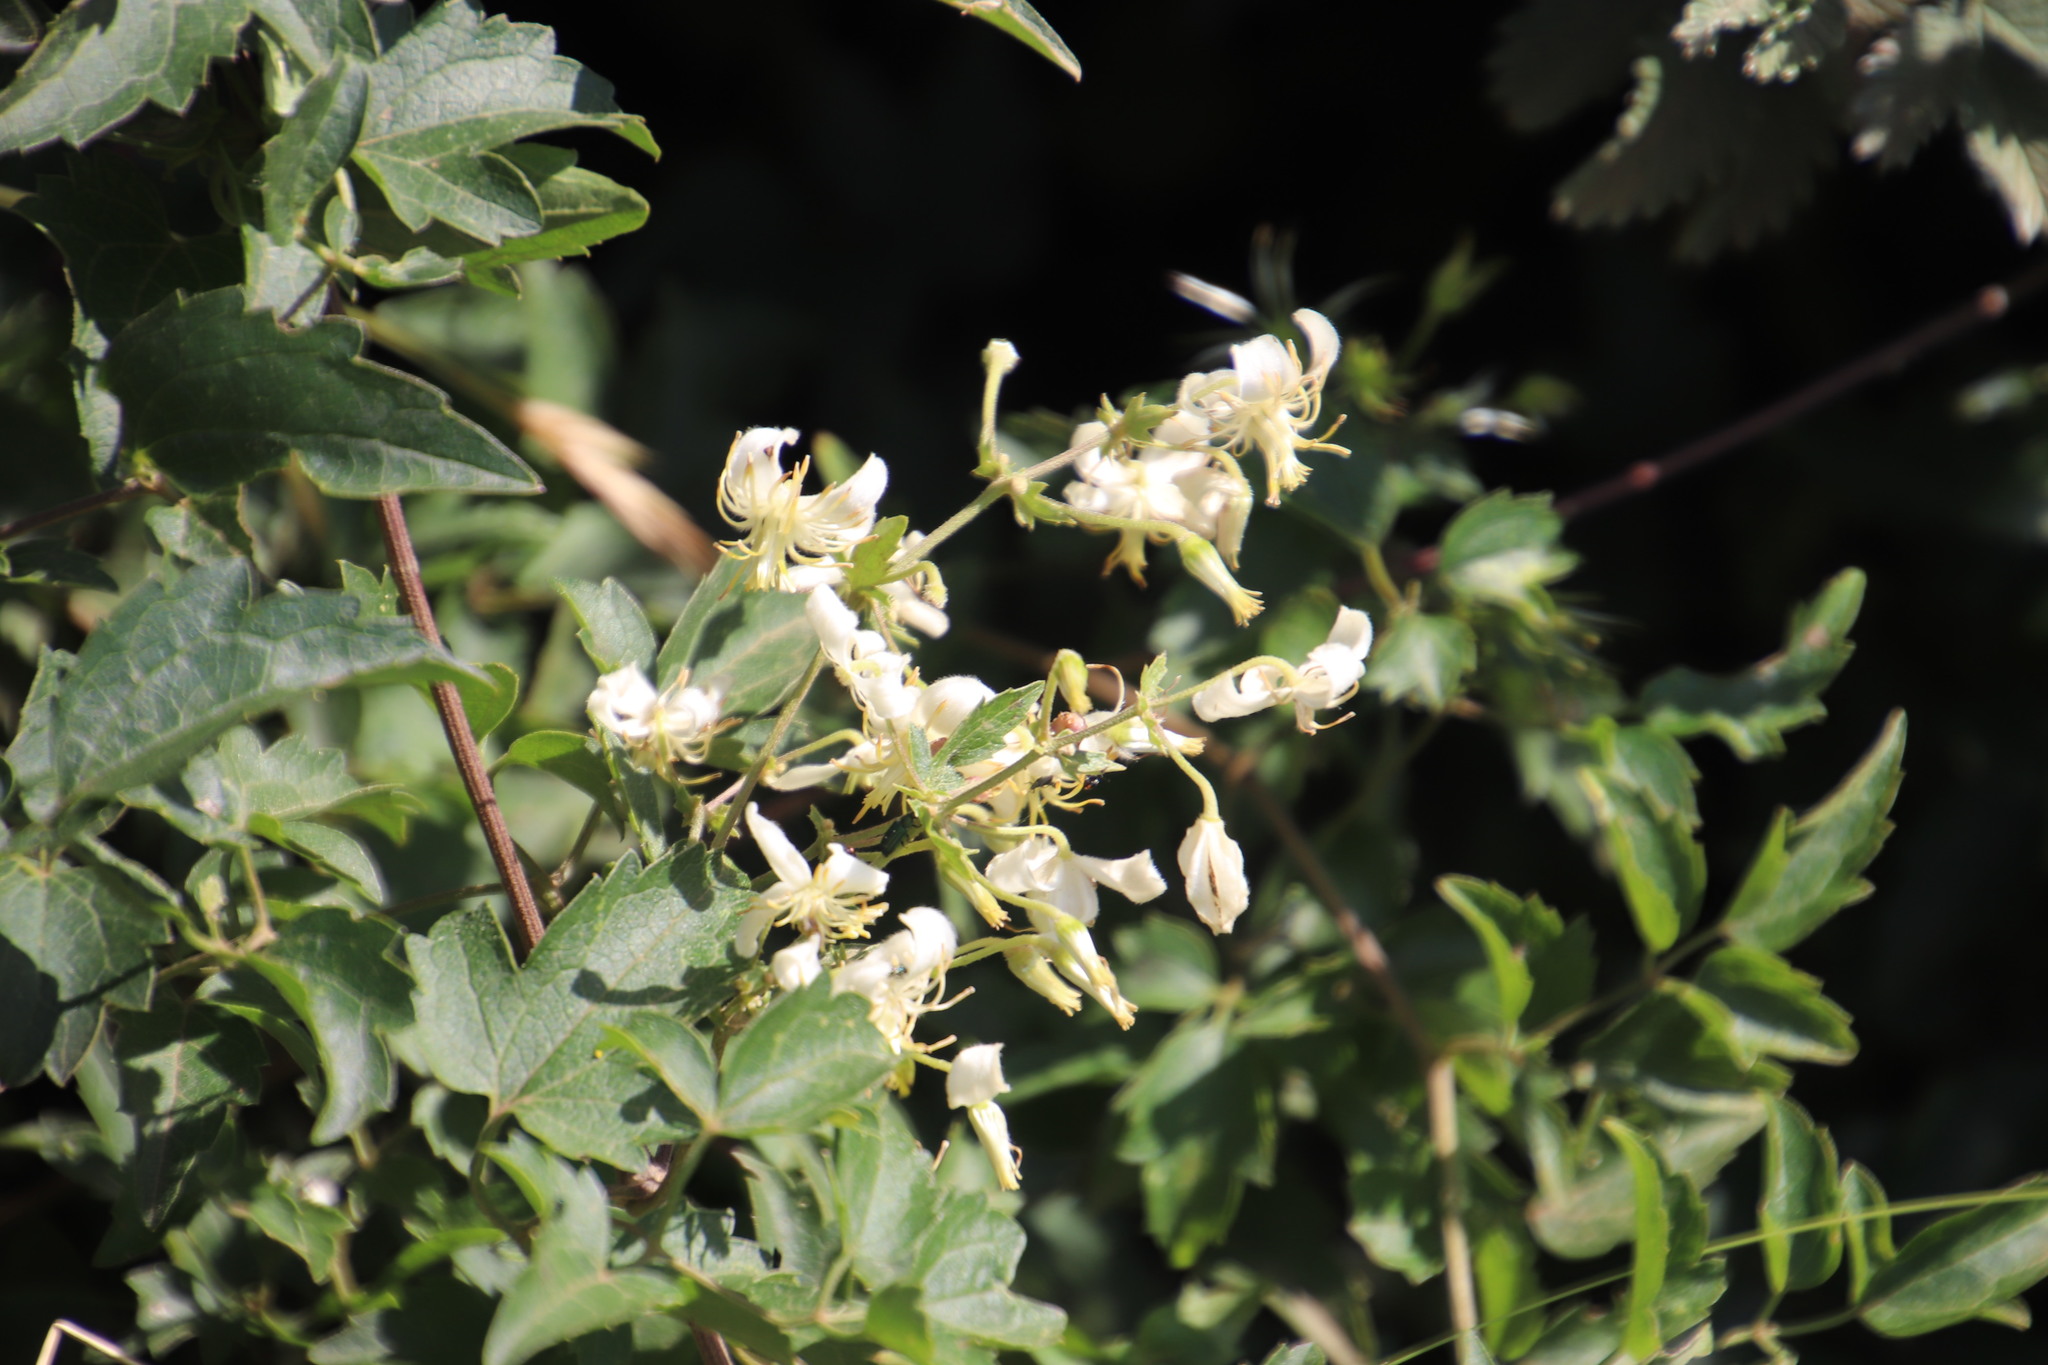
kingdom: Plantae
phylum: Tracheophyta
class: Magnoliopsida
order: Ranunculales
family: Ranunculaceae
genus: Clematis
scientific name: Clematis brachiata
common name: Traveler's-joy
